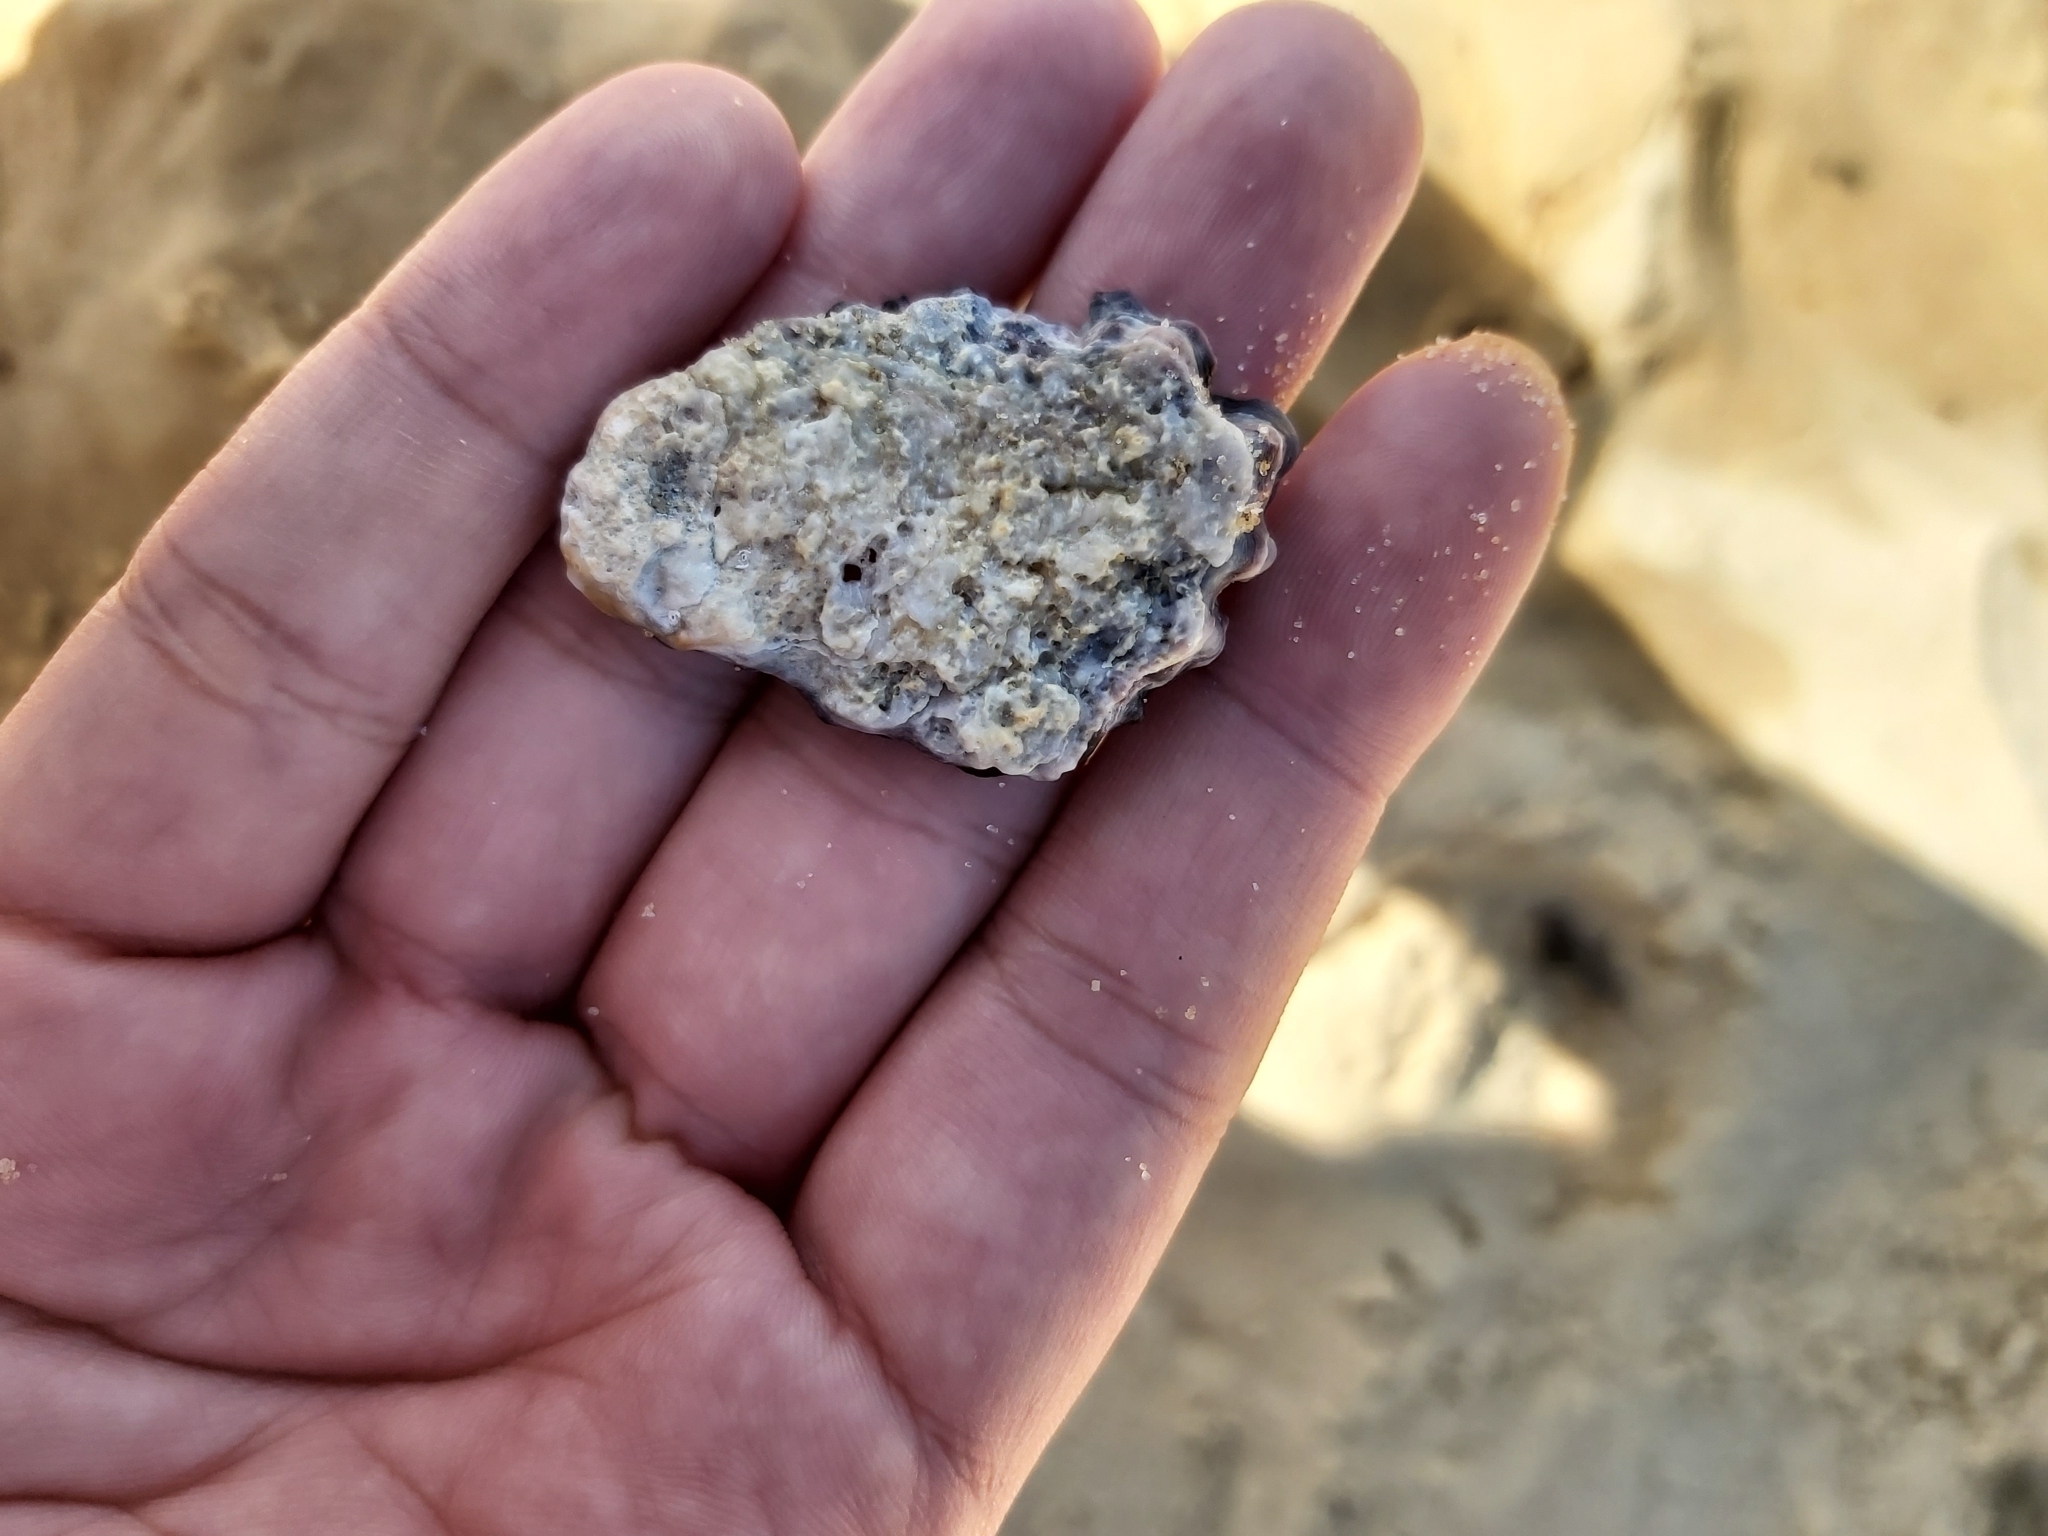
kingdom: Animalia
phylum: Mollusca
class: Bivalvia
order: Ostreida
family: Ostreidae
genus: Saccostrea
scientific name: Saccostrea glomerata
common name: Sydney cupped oyster
